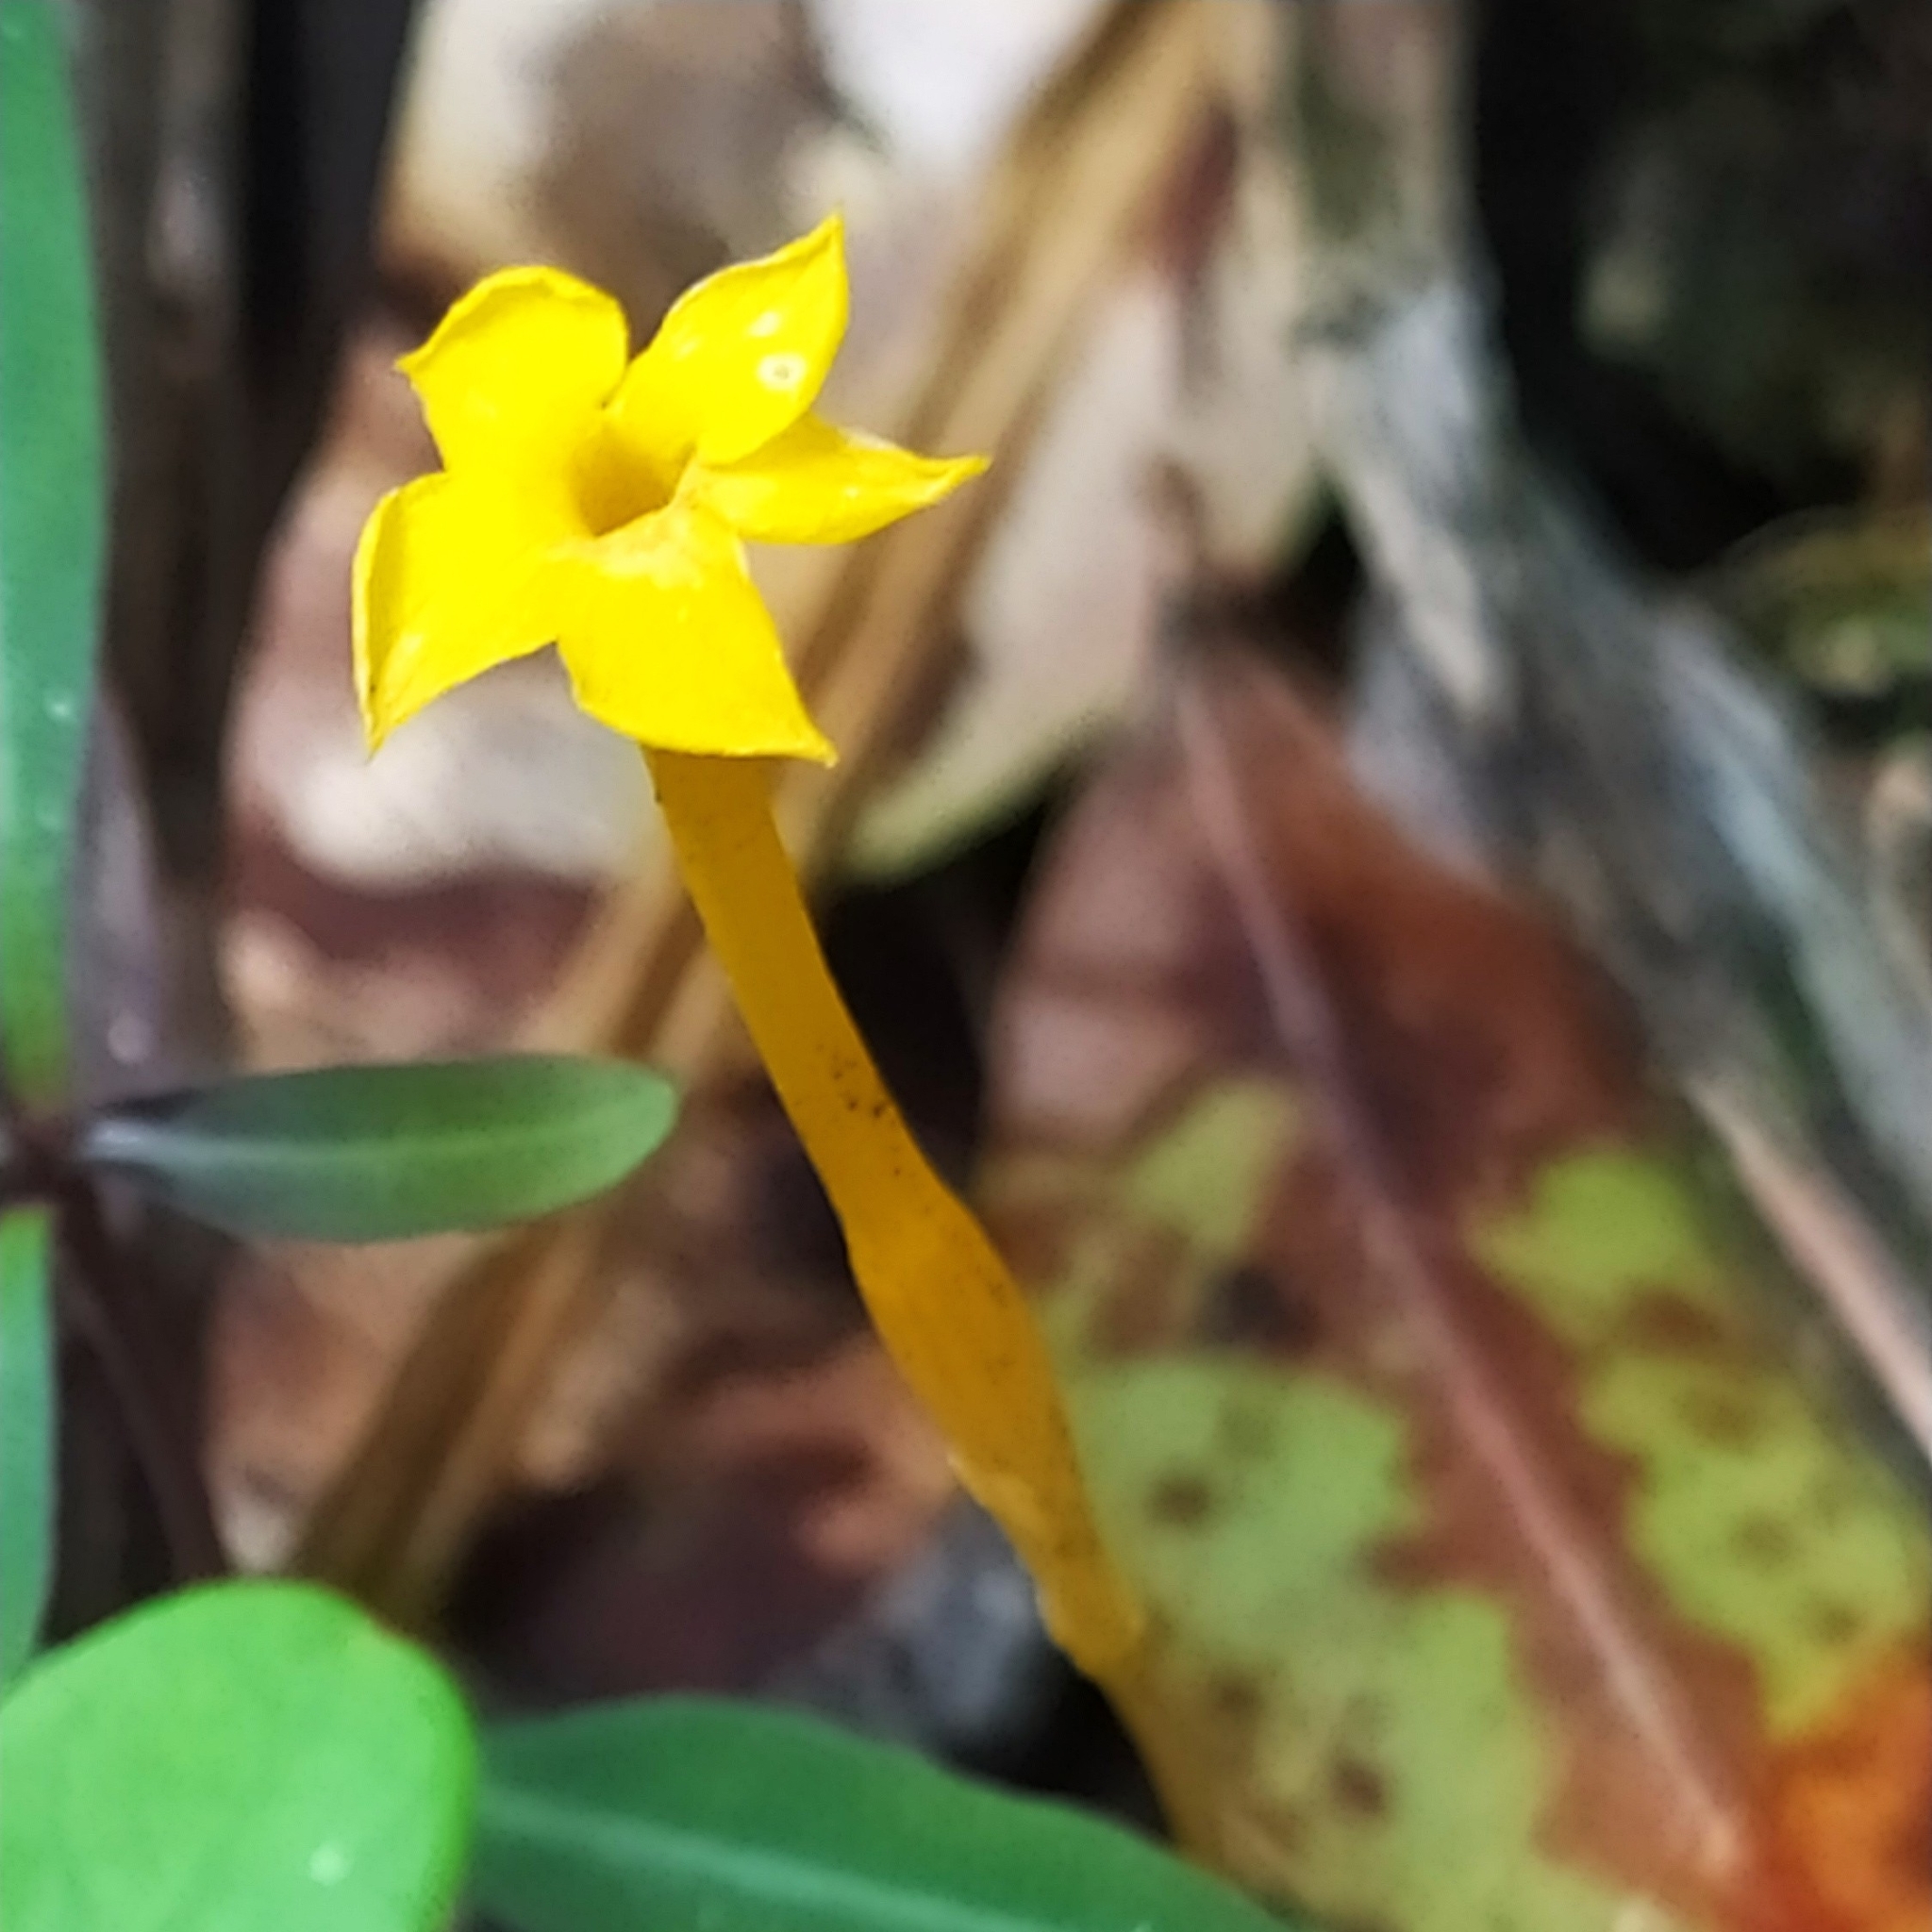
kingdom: Plantae
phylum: Tracheophyta
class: Magnoliopsida
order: Gentianales
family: Gentianaceae
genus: Voyria
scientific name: Voyria aphylla
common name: Leafless ghost plant
